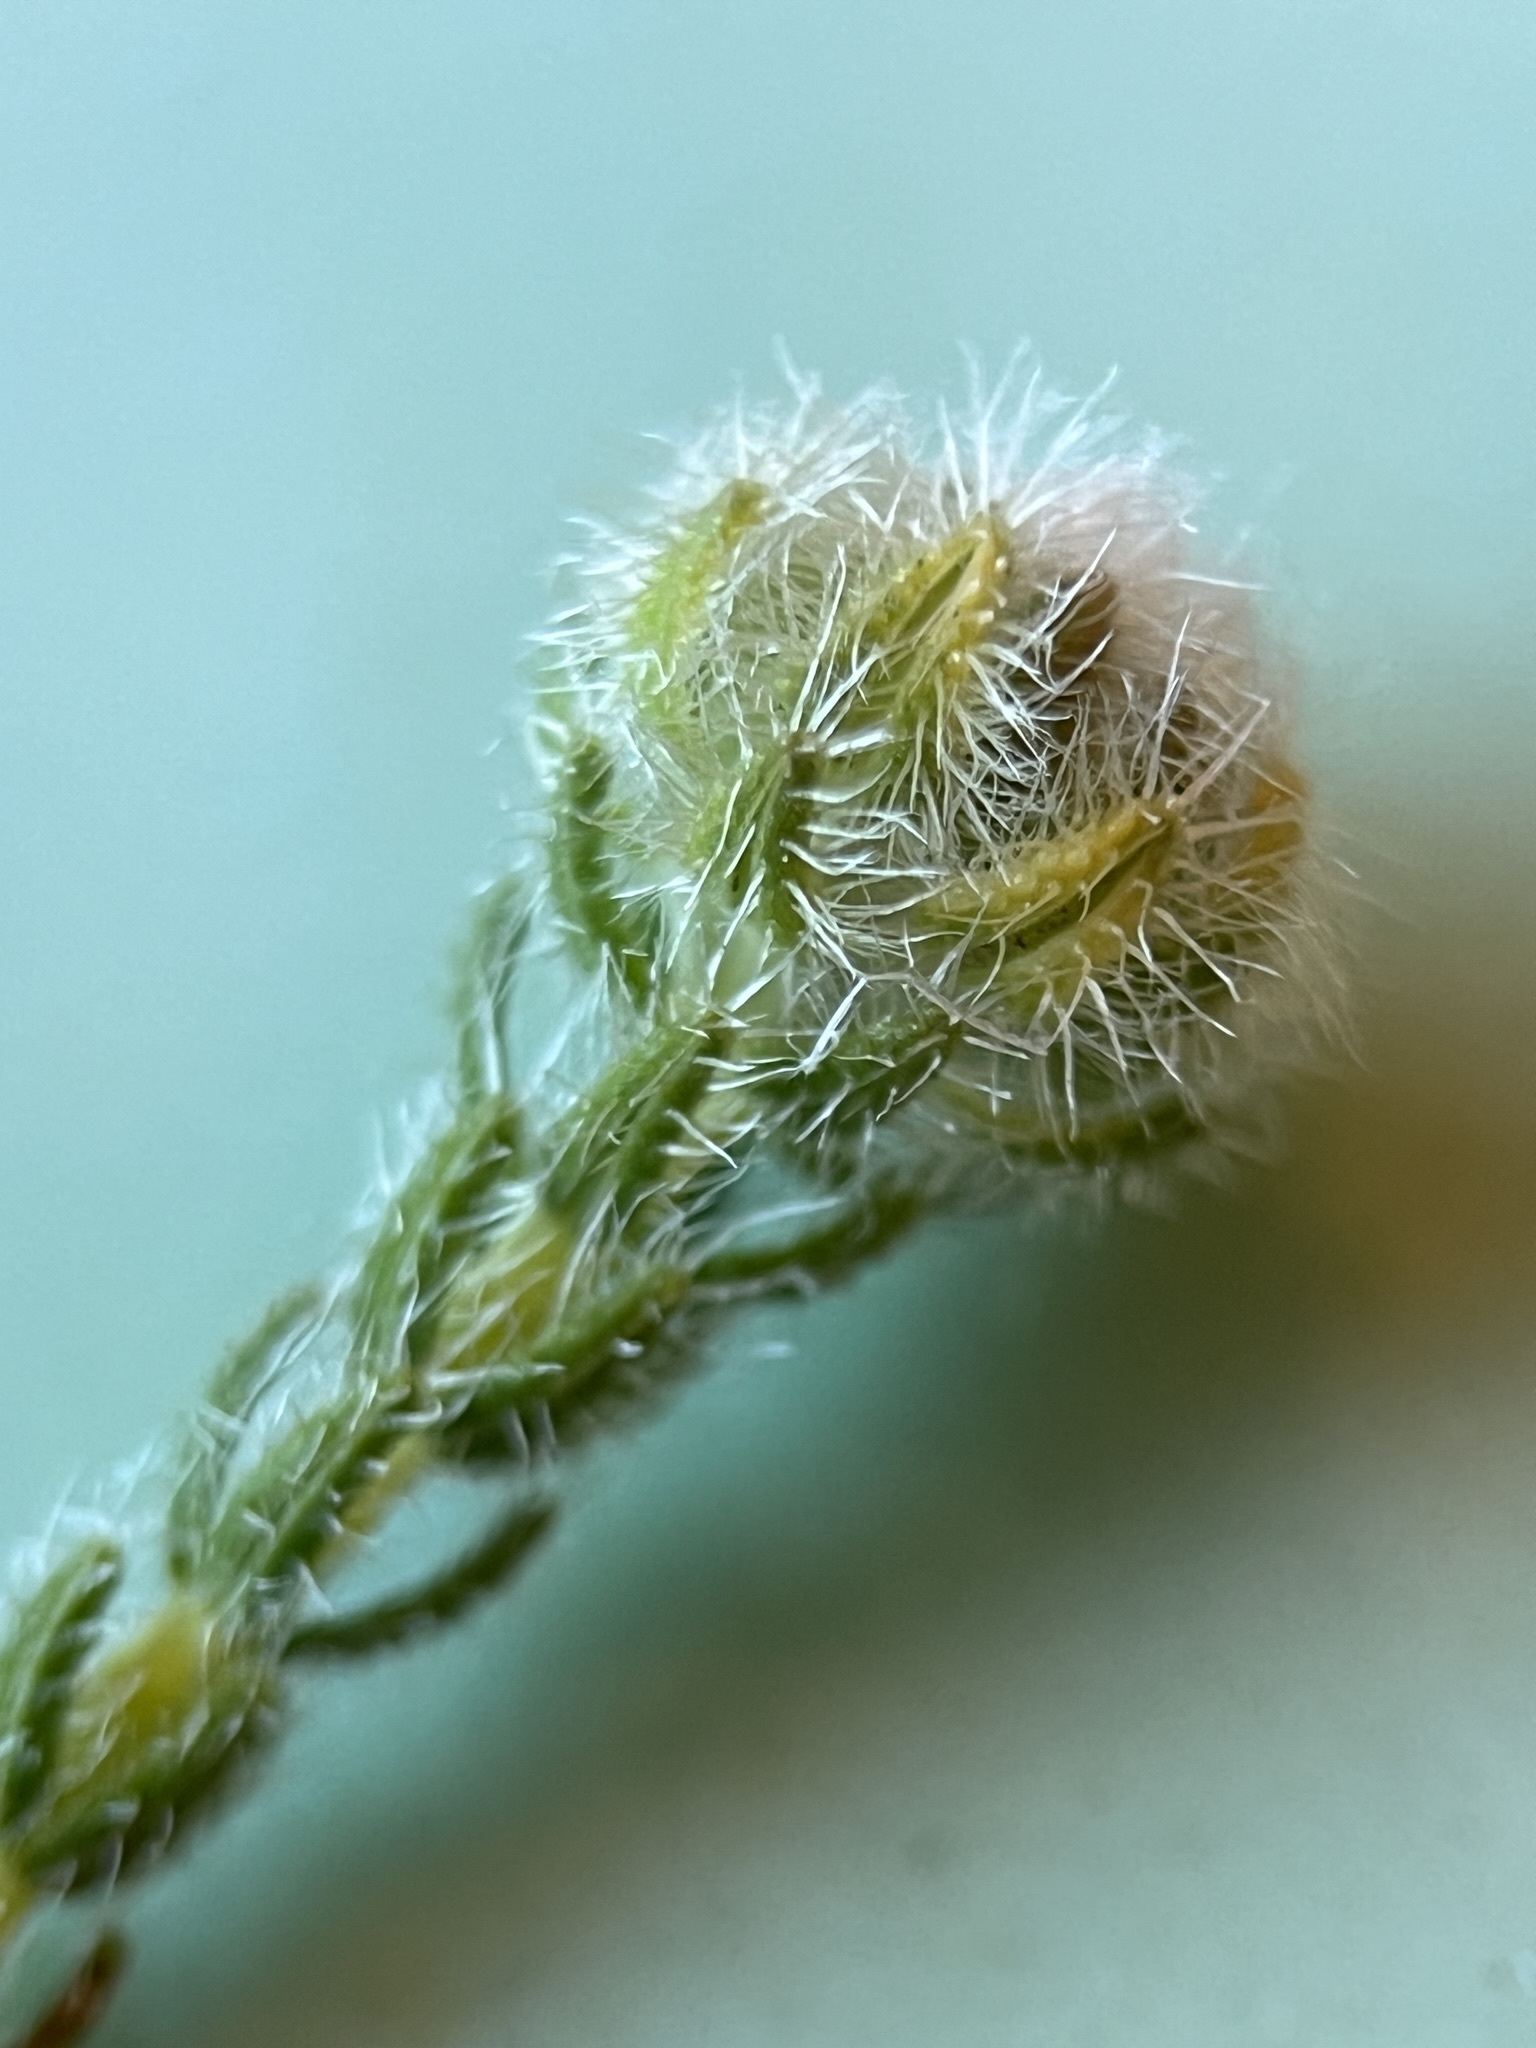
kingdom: Plantae
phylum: Tracheophyta
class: Magnoliopsida
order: Ericales
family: Ericaceae
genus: Erica
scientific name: Erica senilis
